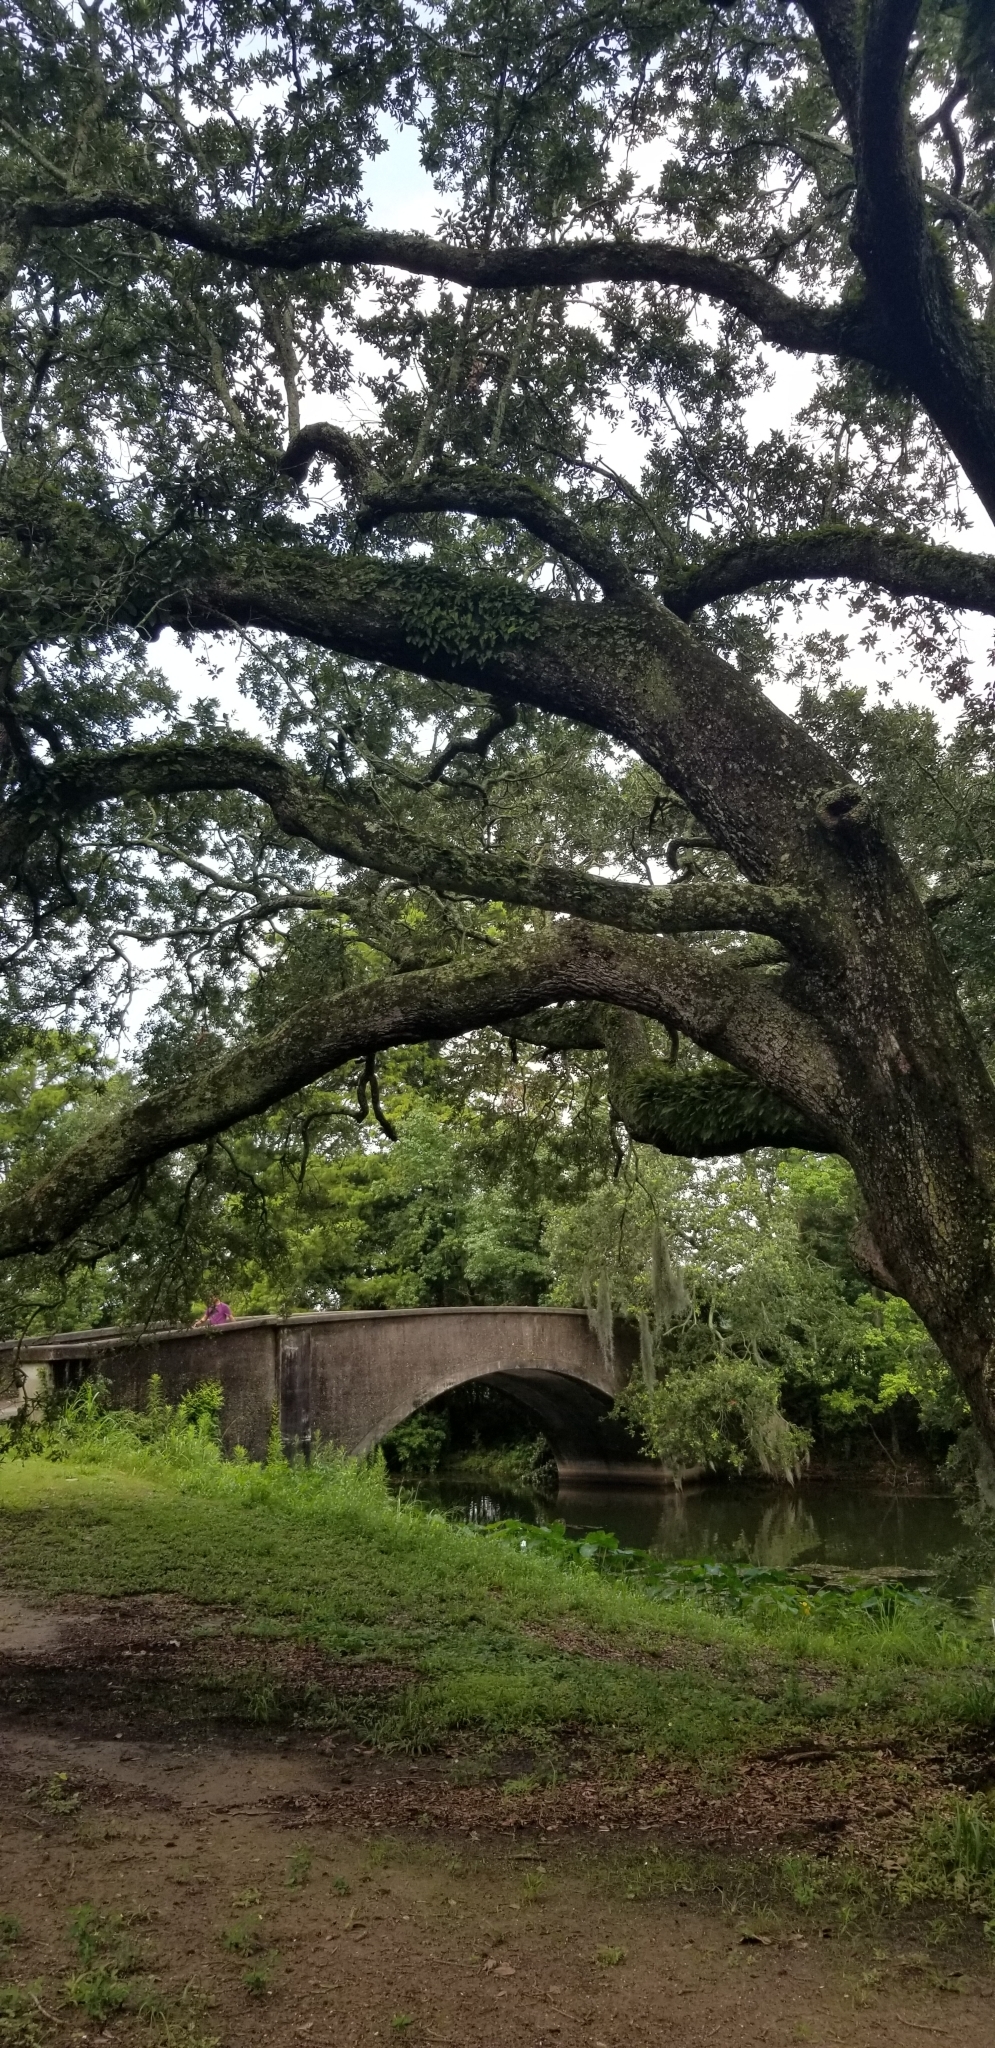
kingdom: Plantae
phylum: Tracheophyta
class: Magnoliopsida
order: Fagales
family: Fagaceae
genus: Quercus
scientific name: Quercus virginiana
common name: Southern live oak
